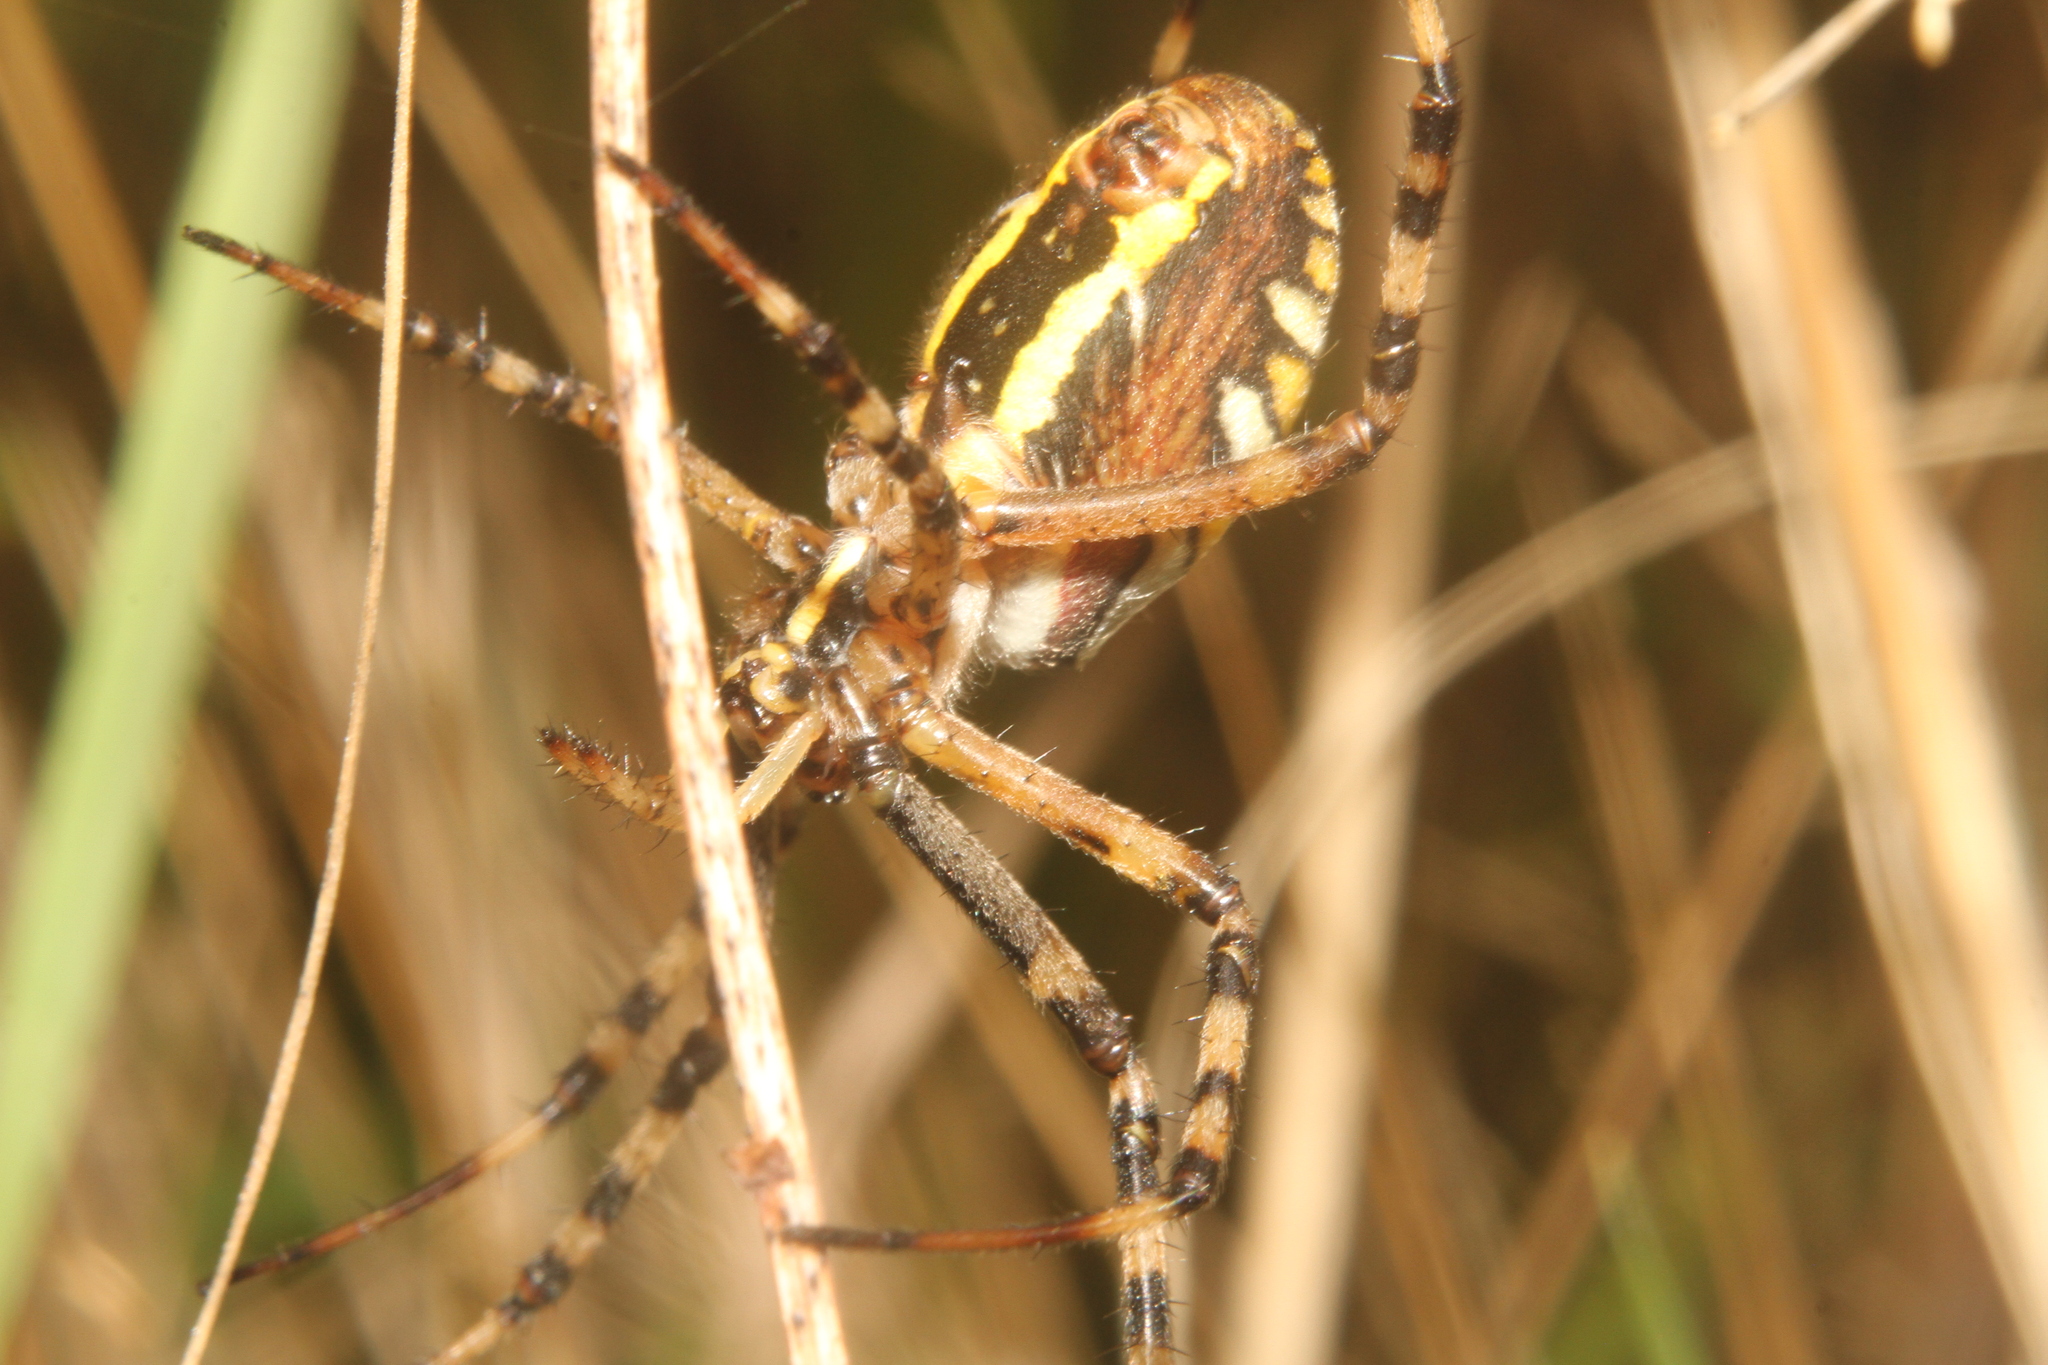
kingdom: Animalia
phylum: Arthropoda
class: Arachnida
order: Araneae
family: Araneidae
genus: Argiope
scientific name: Argiope bruennichi
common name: Wasp spider
